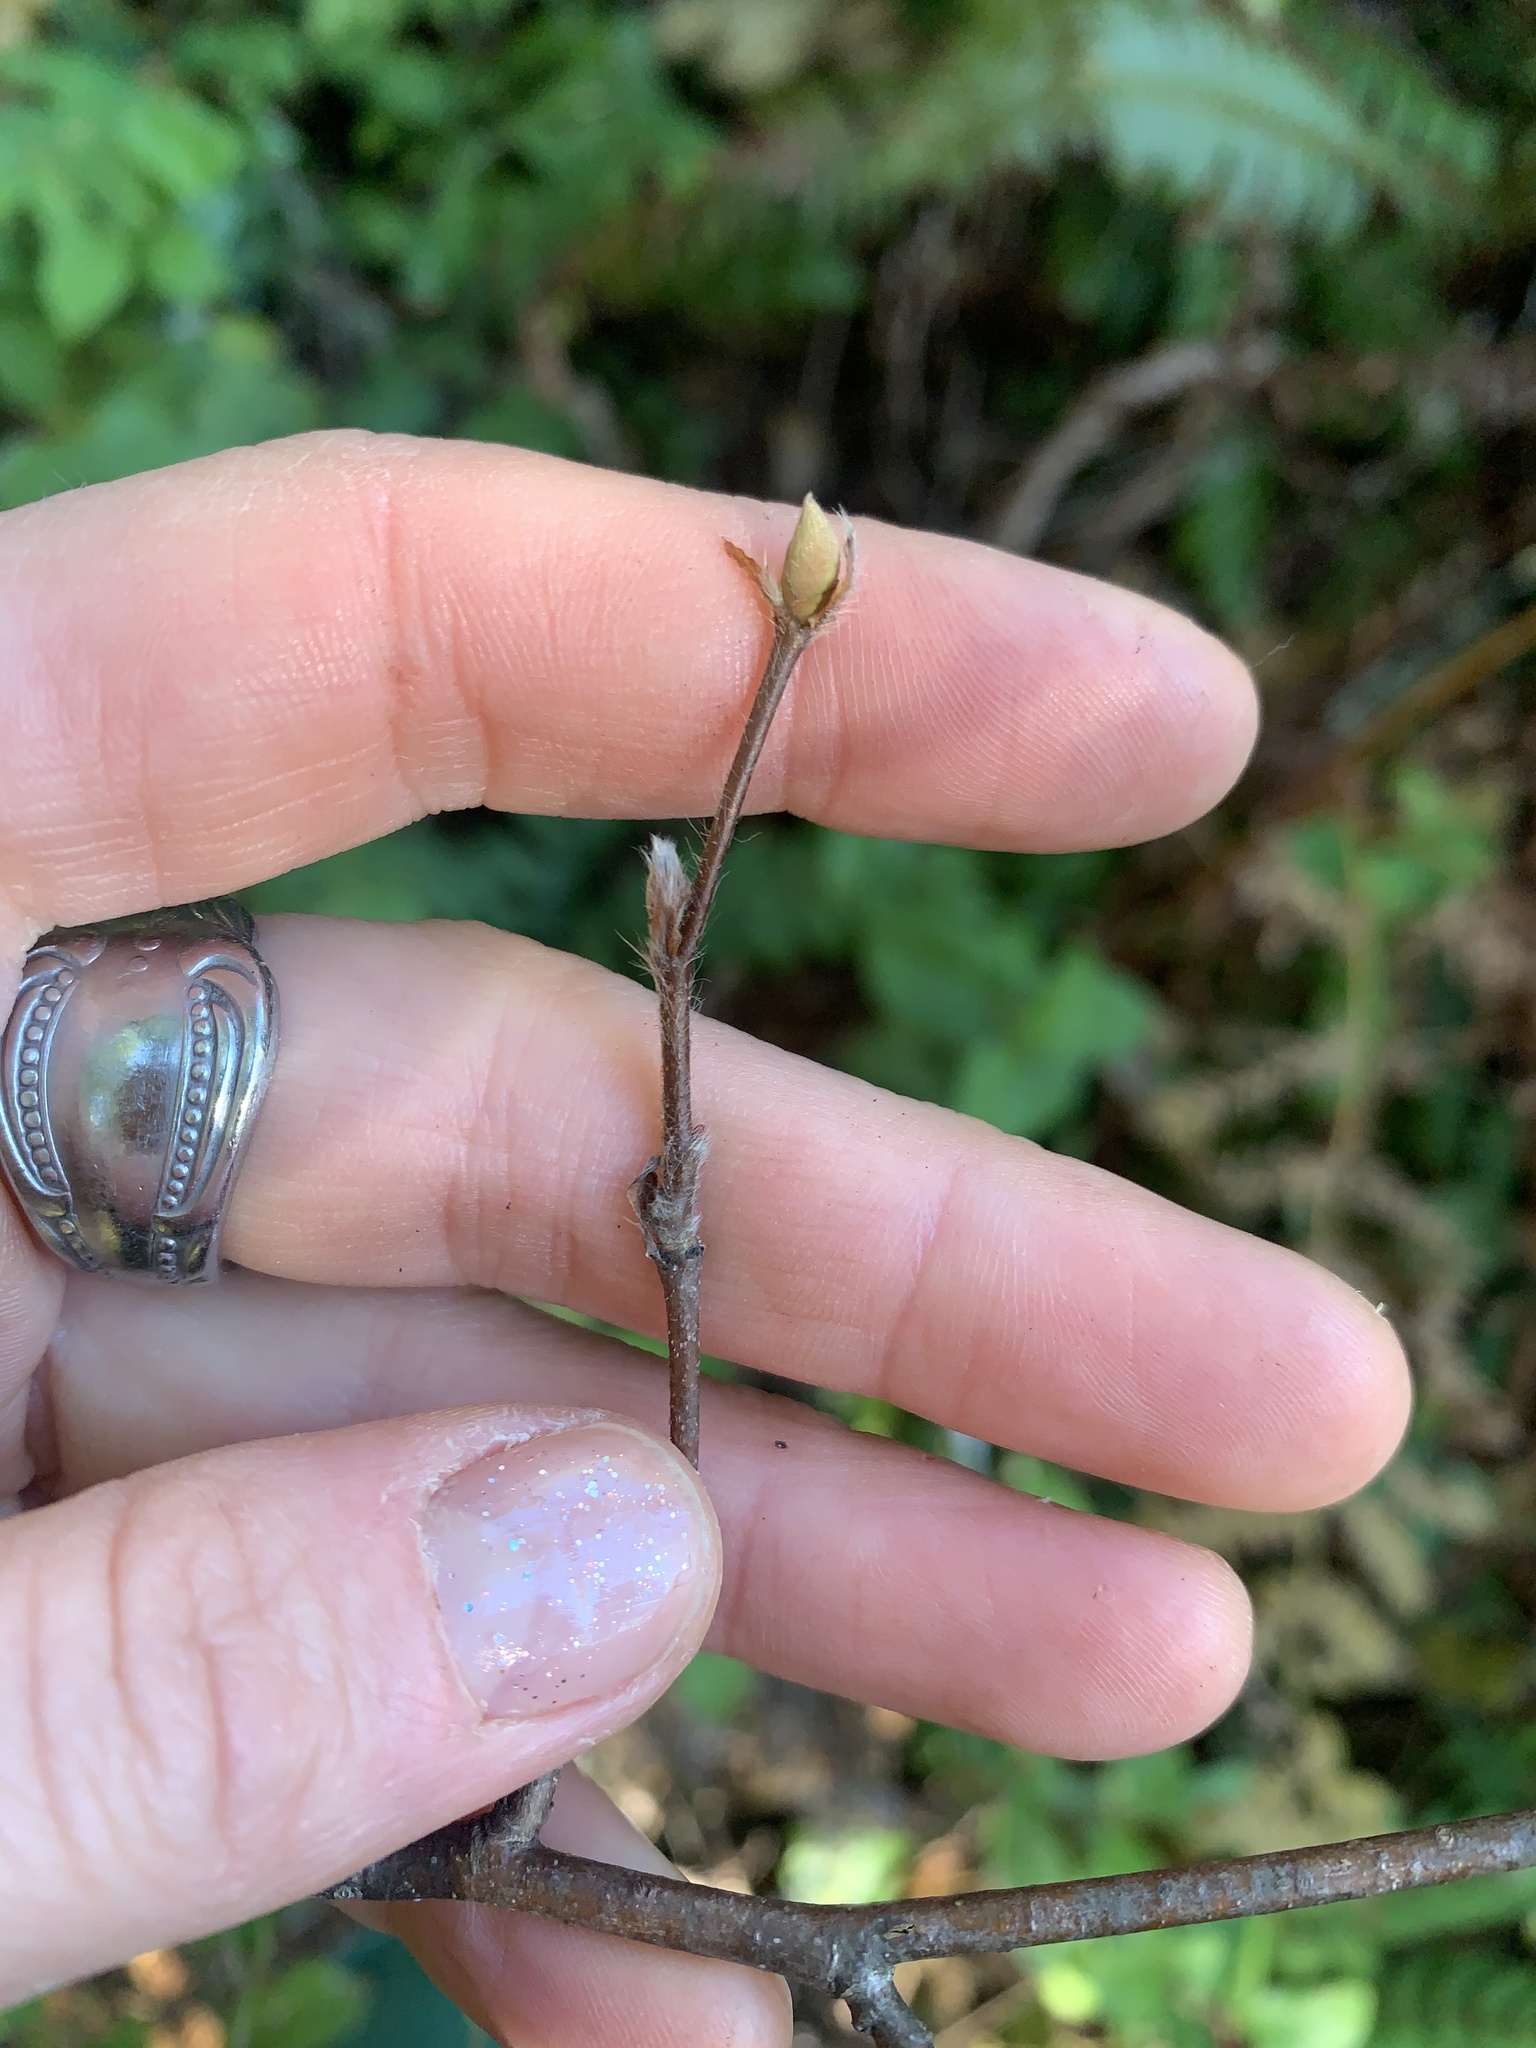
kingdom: Plantae
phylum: Tracheophyta
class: Magnoliopsida
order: Fagales
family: Betulaceae
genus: Corylus
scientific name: Corylus cornuta
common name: Beaked hazel
